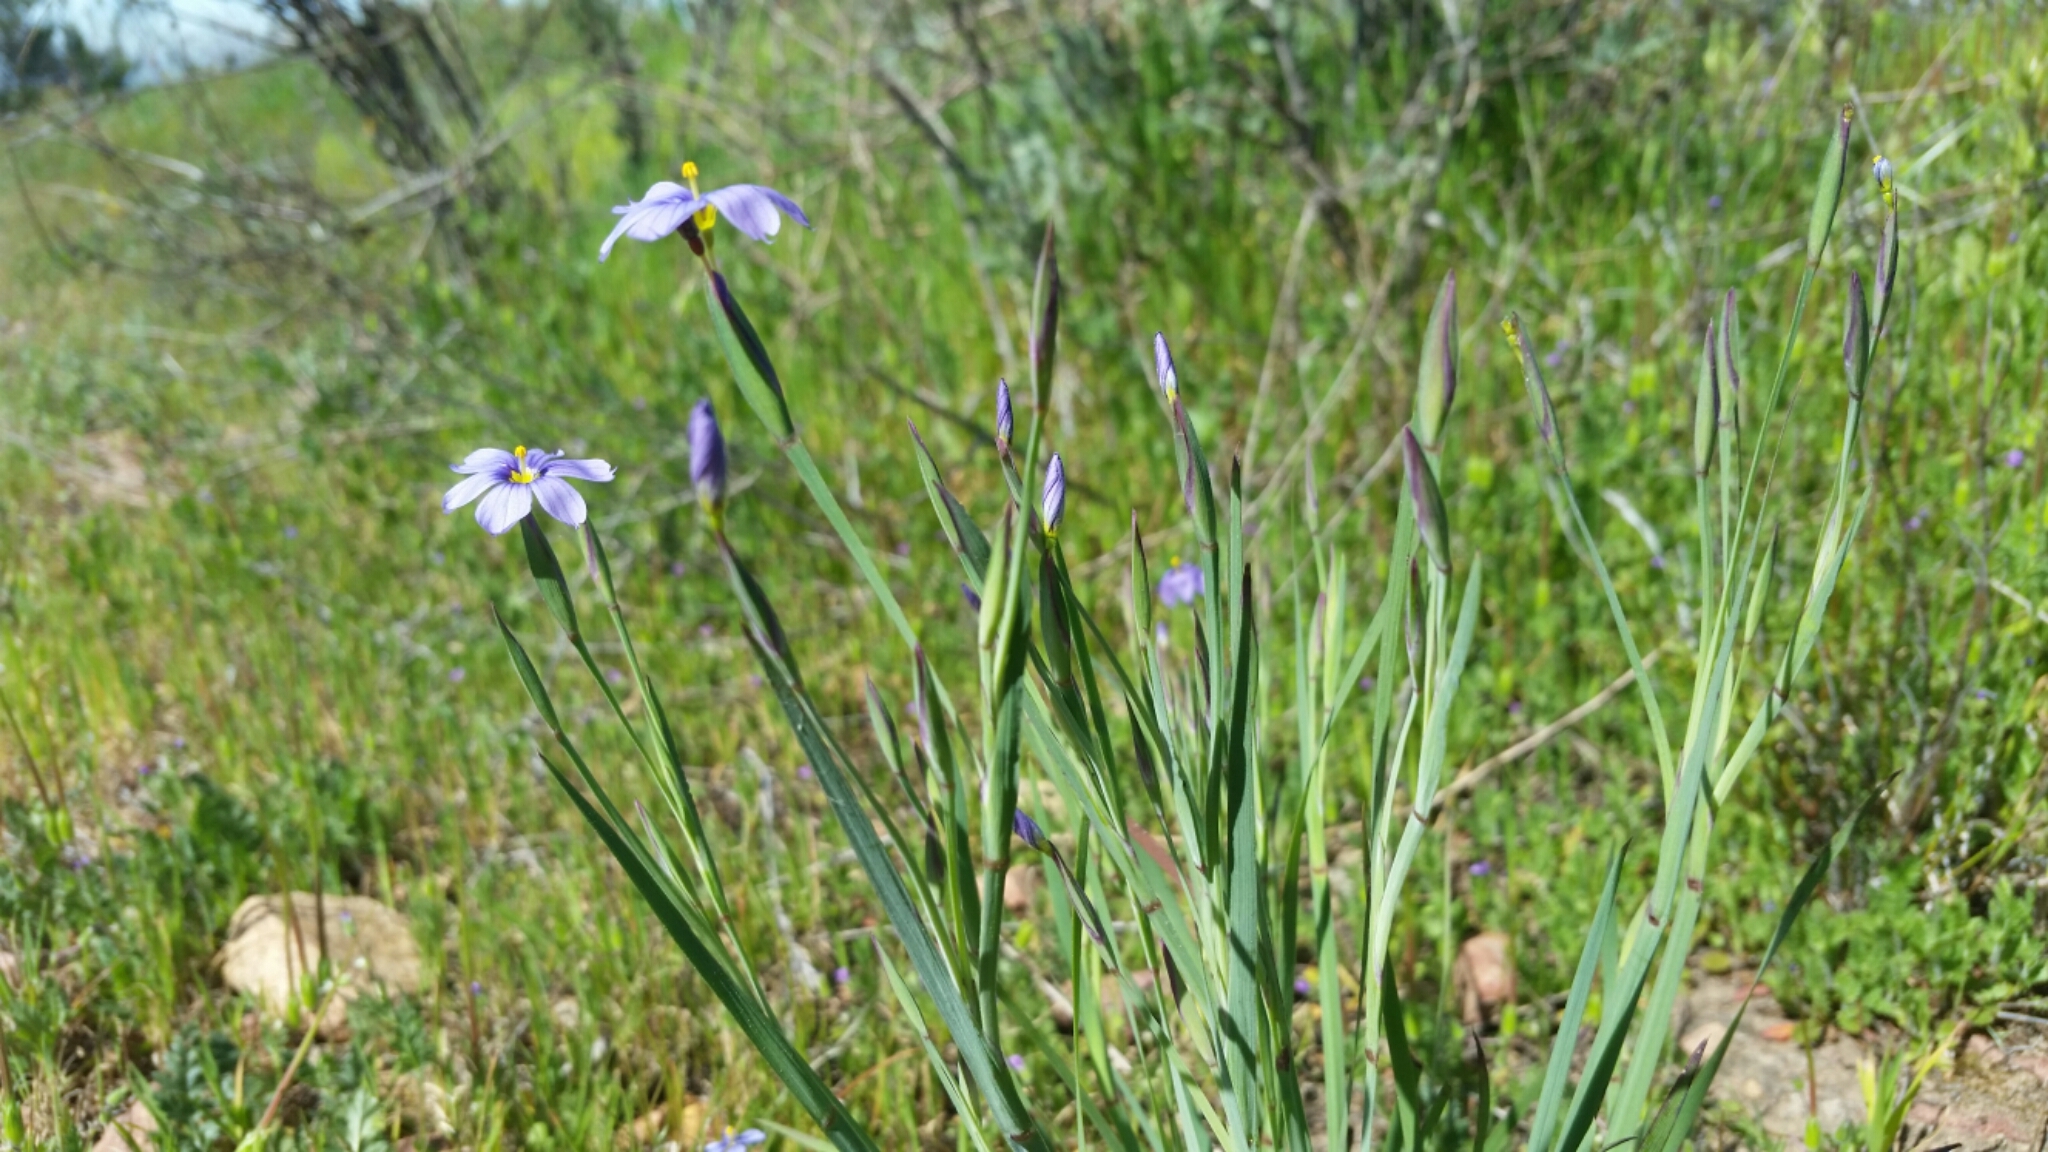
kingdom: Plantae
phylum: Tracheophyta
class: Liliopsida
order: Asparagales
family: Iridaceae
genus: Sisyrinchium
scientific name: Sisyrinchium bellum
